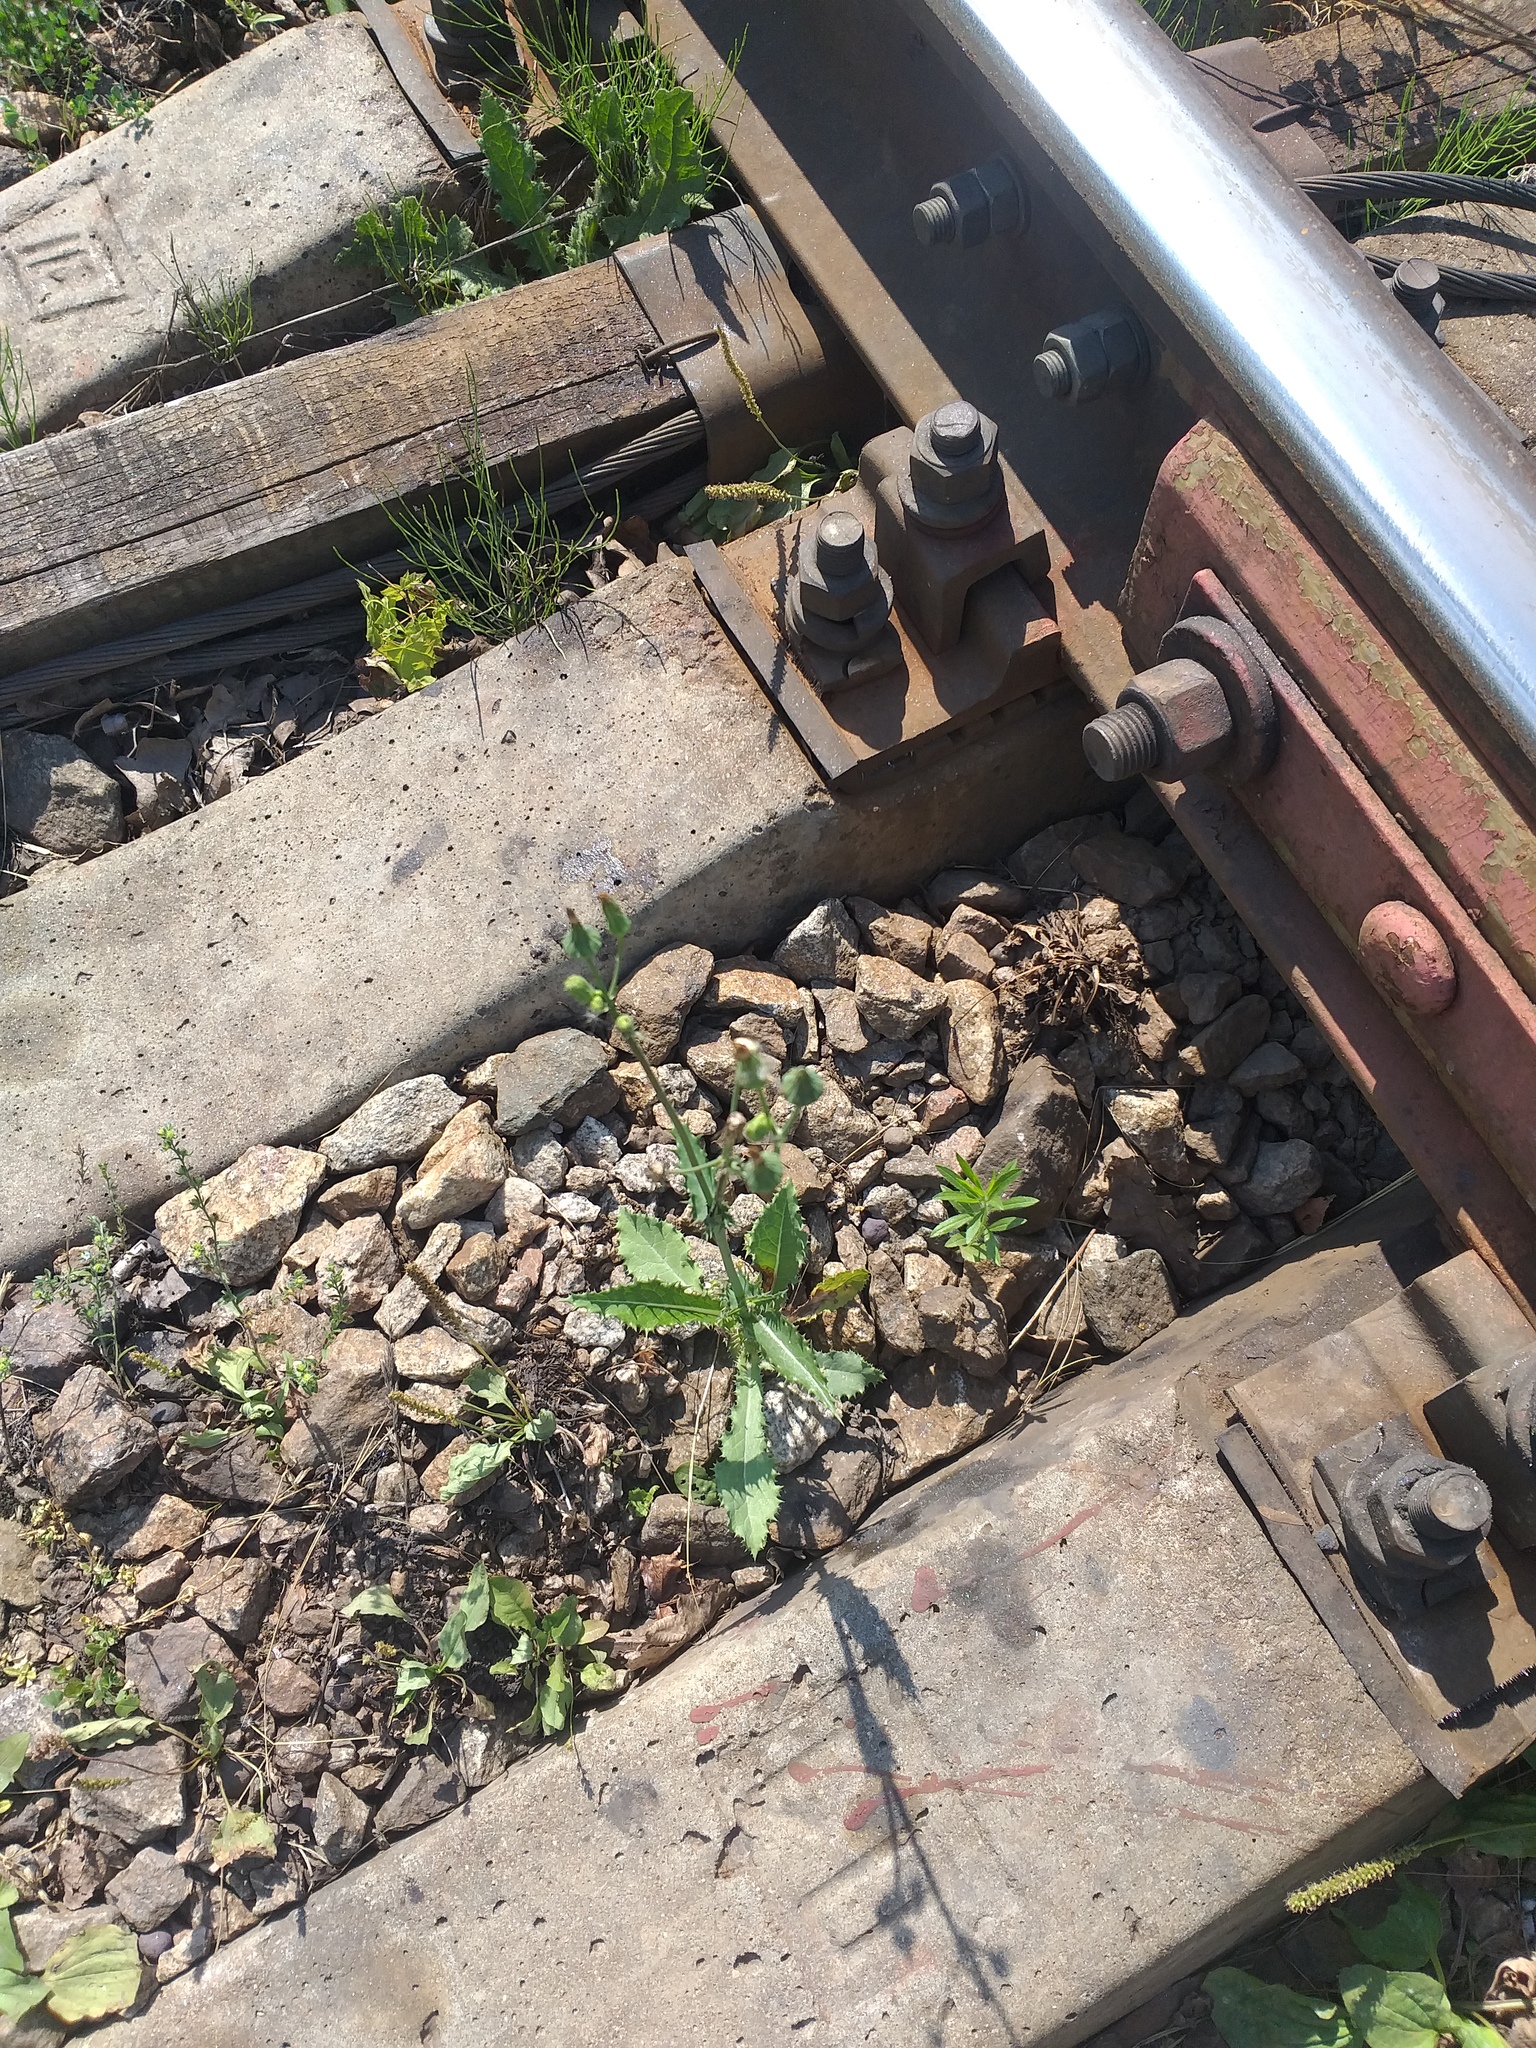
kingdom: Plantae
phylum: Tracheophyta
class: Magnoliopsida
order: Asterales
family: Asteraceae
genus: Sonchus
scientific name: Sonchus asper
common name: Prickly sow-thistle
